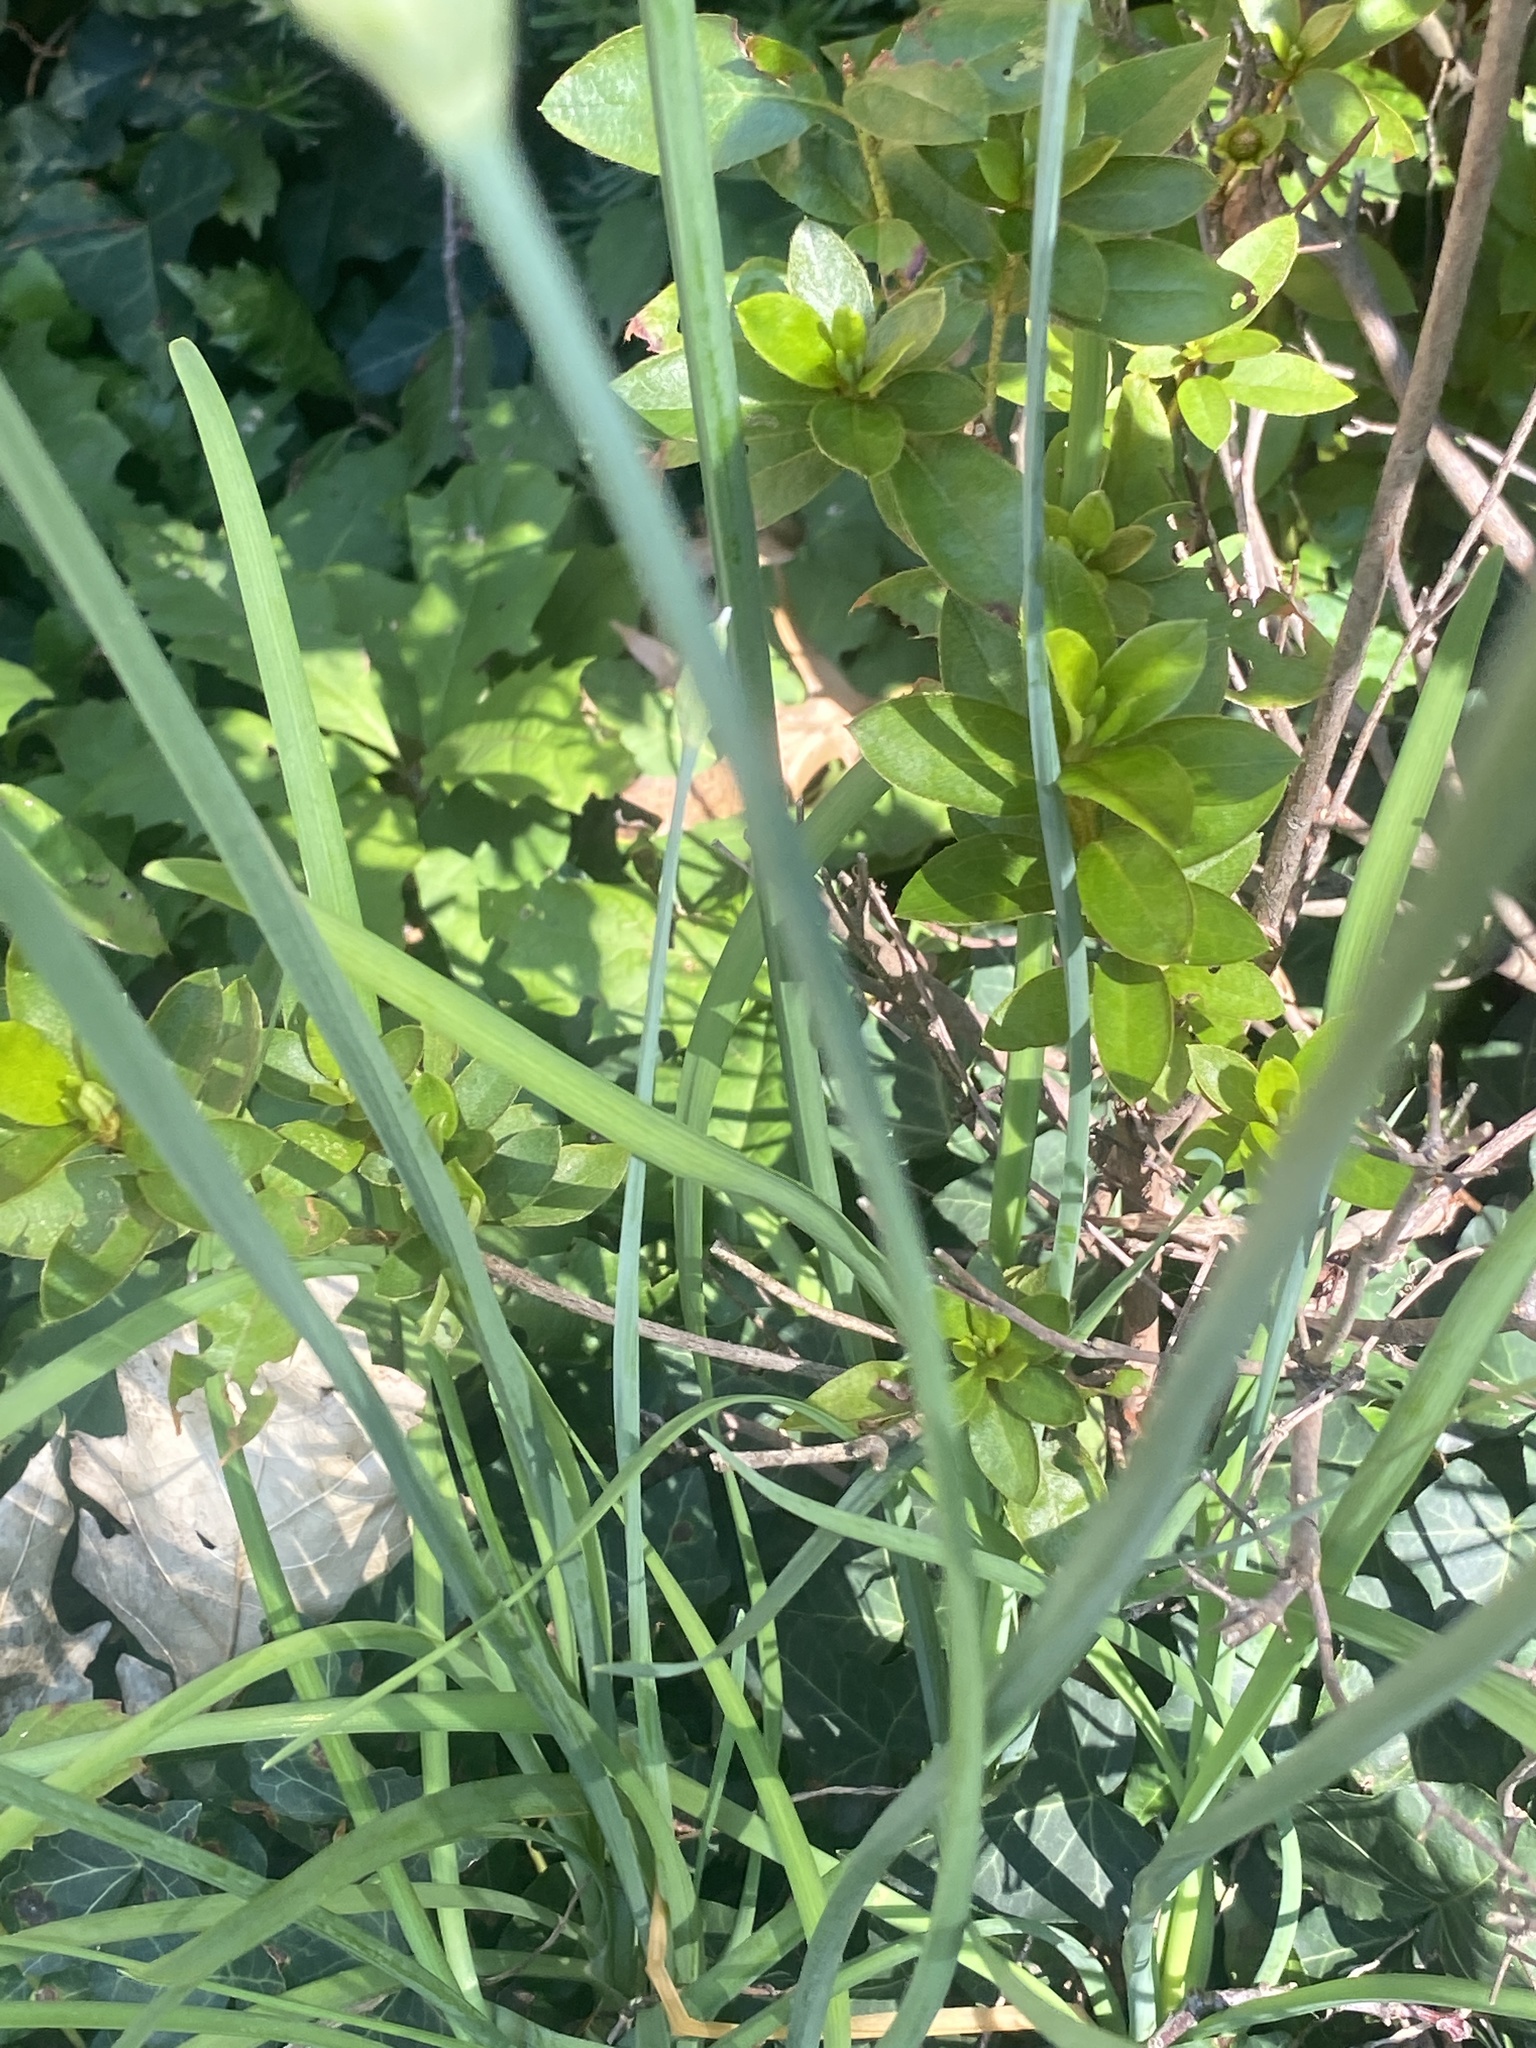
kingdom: Plantae
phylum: Tracheophyta
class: Liliopsida
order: Asparagales
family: Amaryllidaceae
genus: Allium
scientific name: Allium tuberosum
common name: Chinese chives
